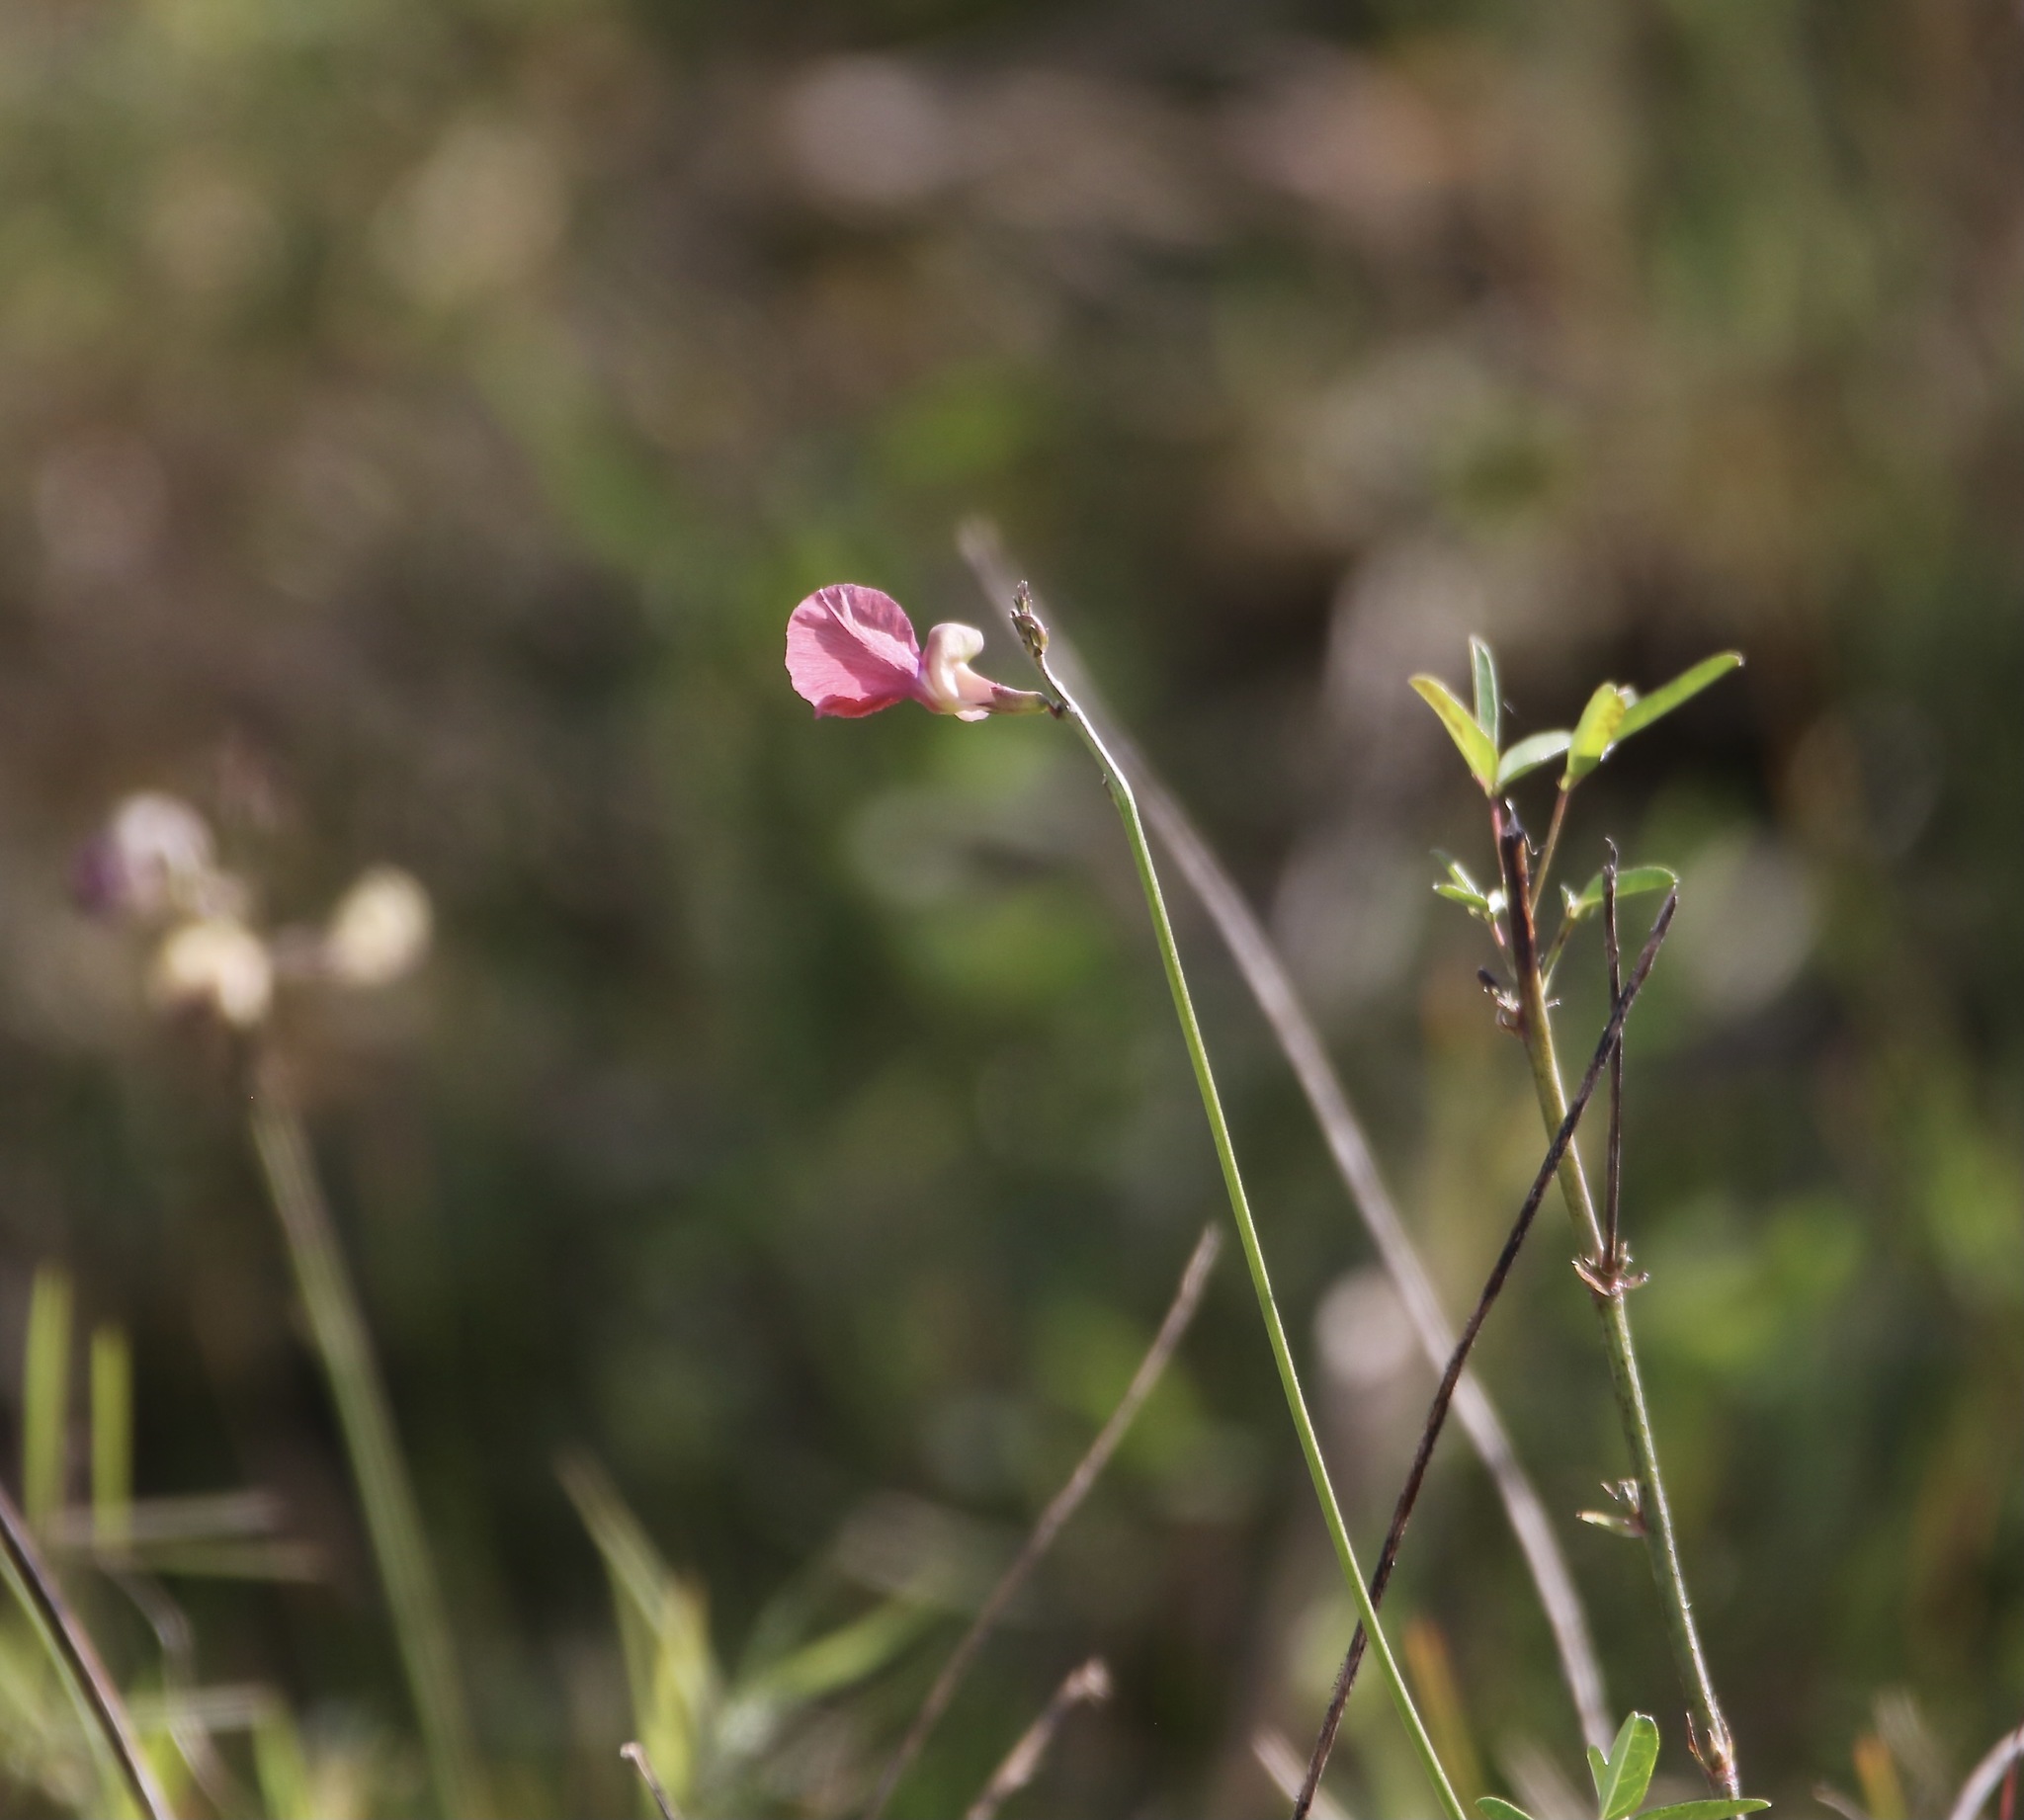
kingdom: Plantae
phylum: Tracheophyta
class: Magnoliopsida
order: Fabales
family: Fabaceae
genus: Macroptilium
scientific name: Macroptilium lathyroides
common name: Wild bushbean
